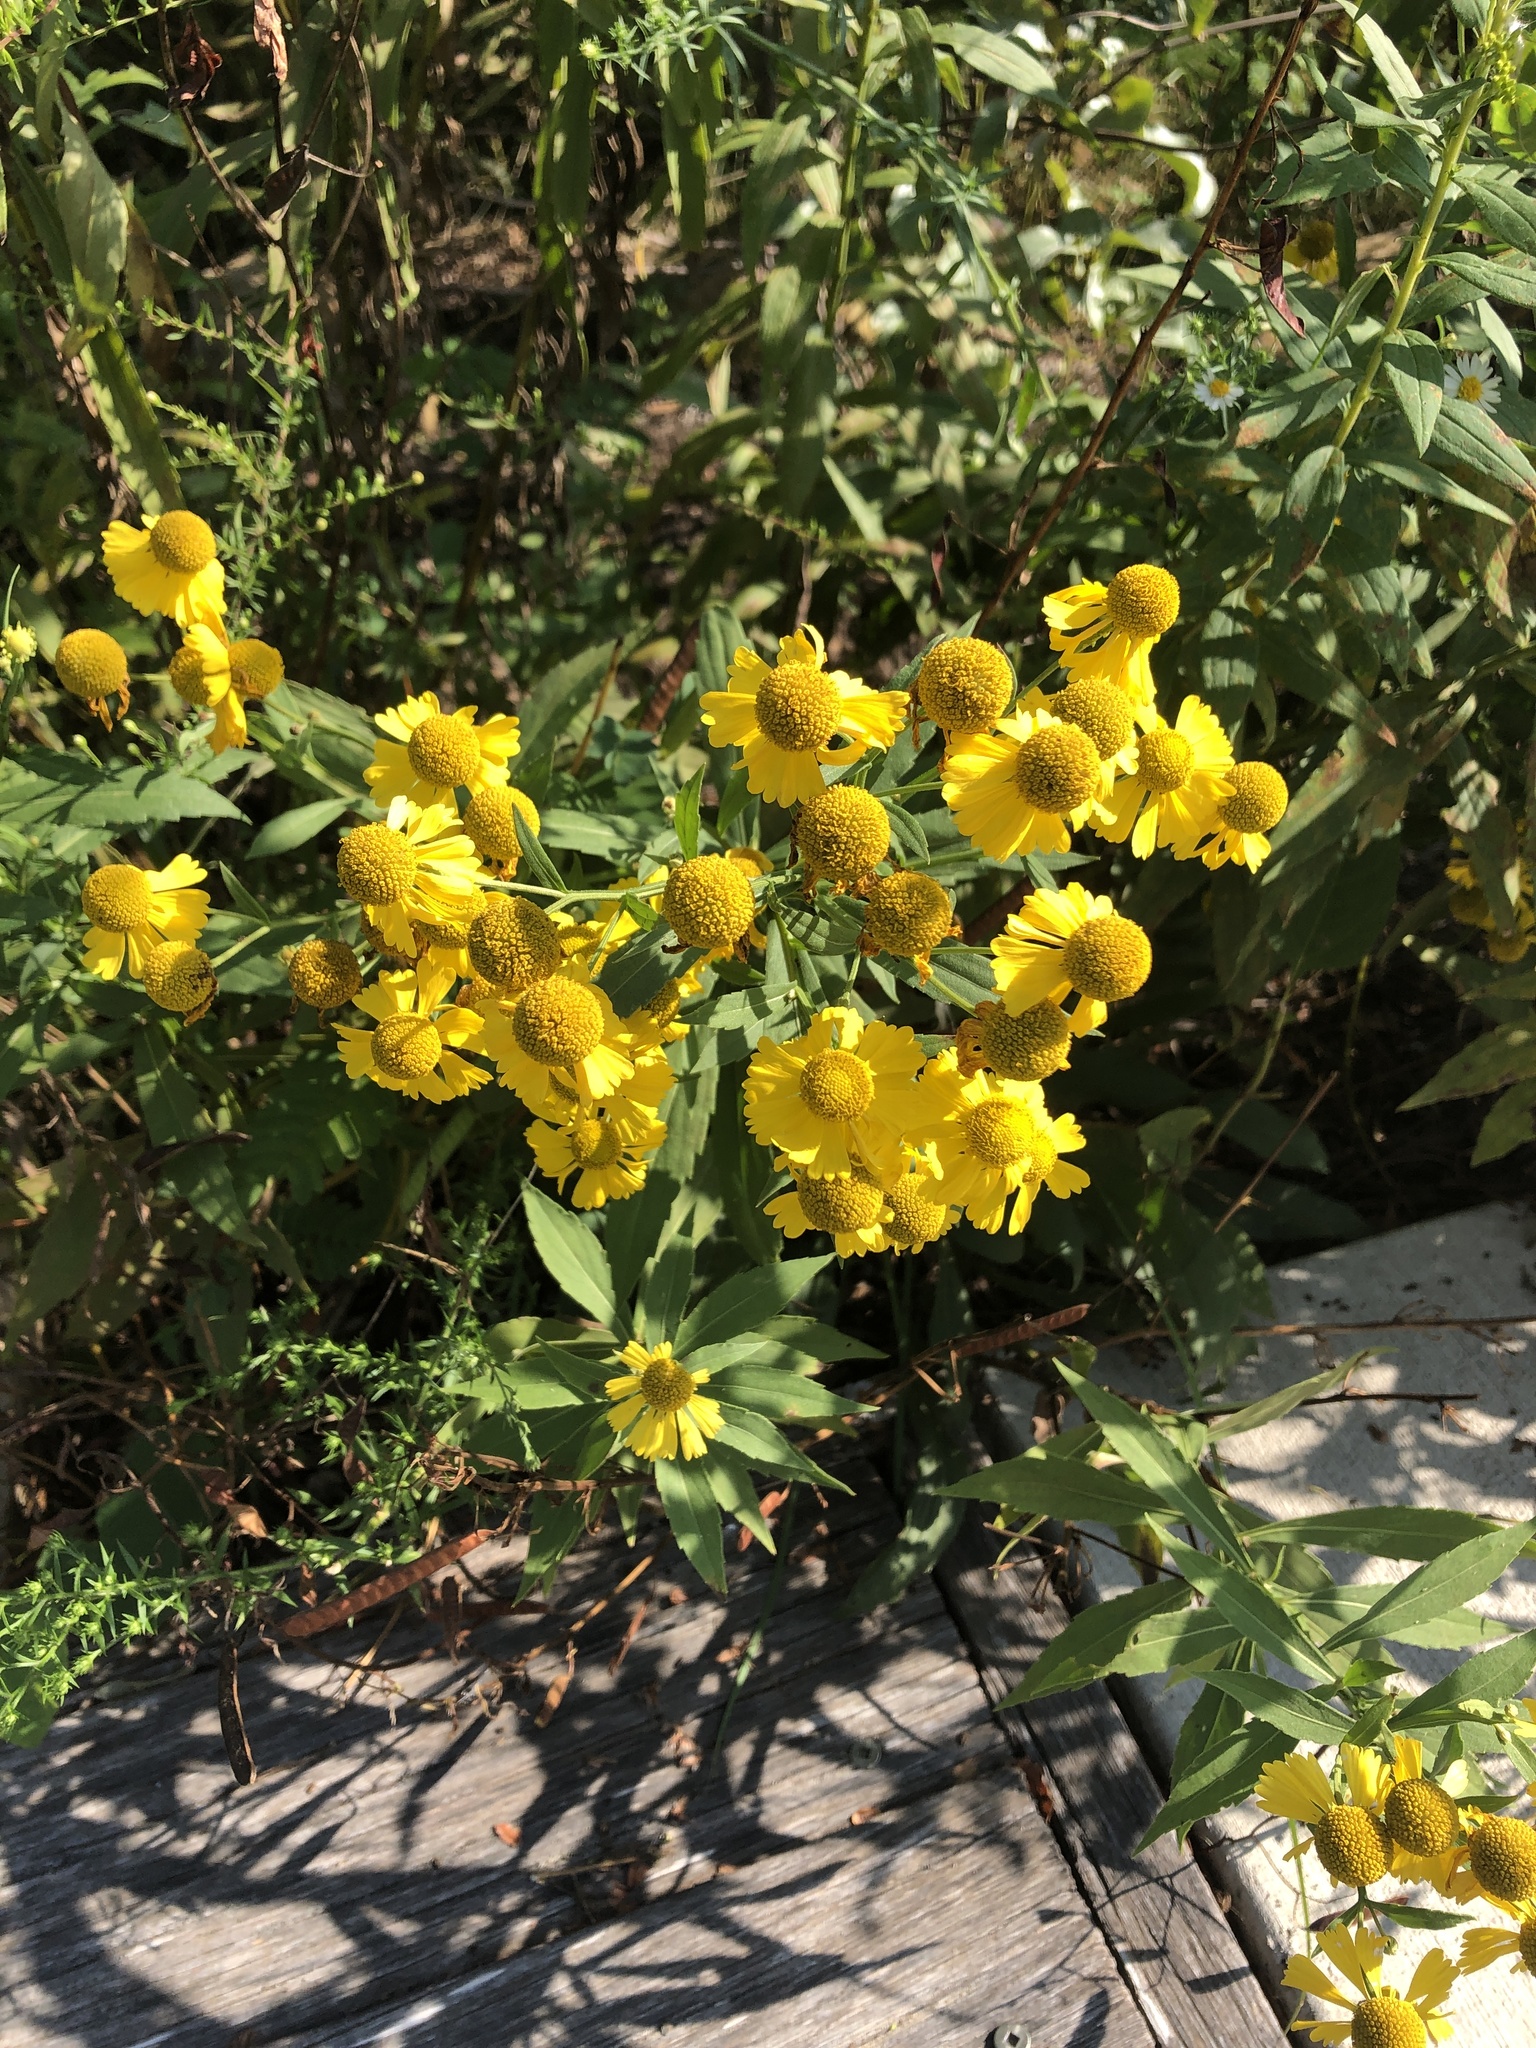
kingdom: Plantae
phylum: Tracheophyta
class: Magnoliopsida
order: Asterales
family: Asteraceae
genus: Helenium
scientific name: Helenium autumnale
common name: Sneezeweed
